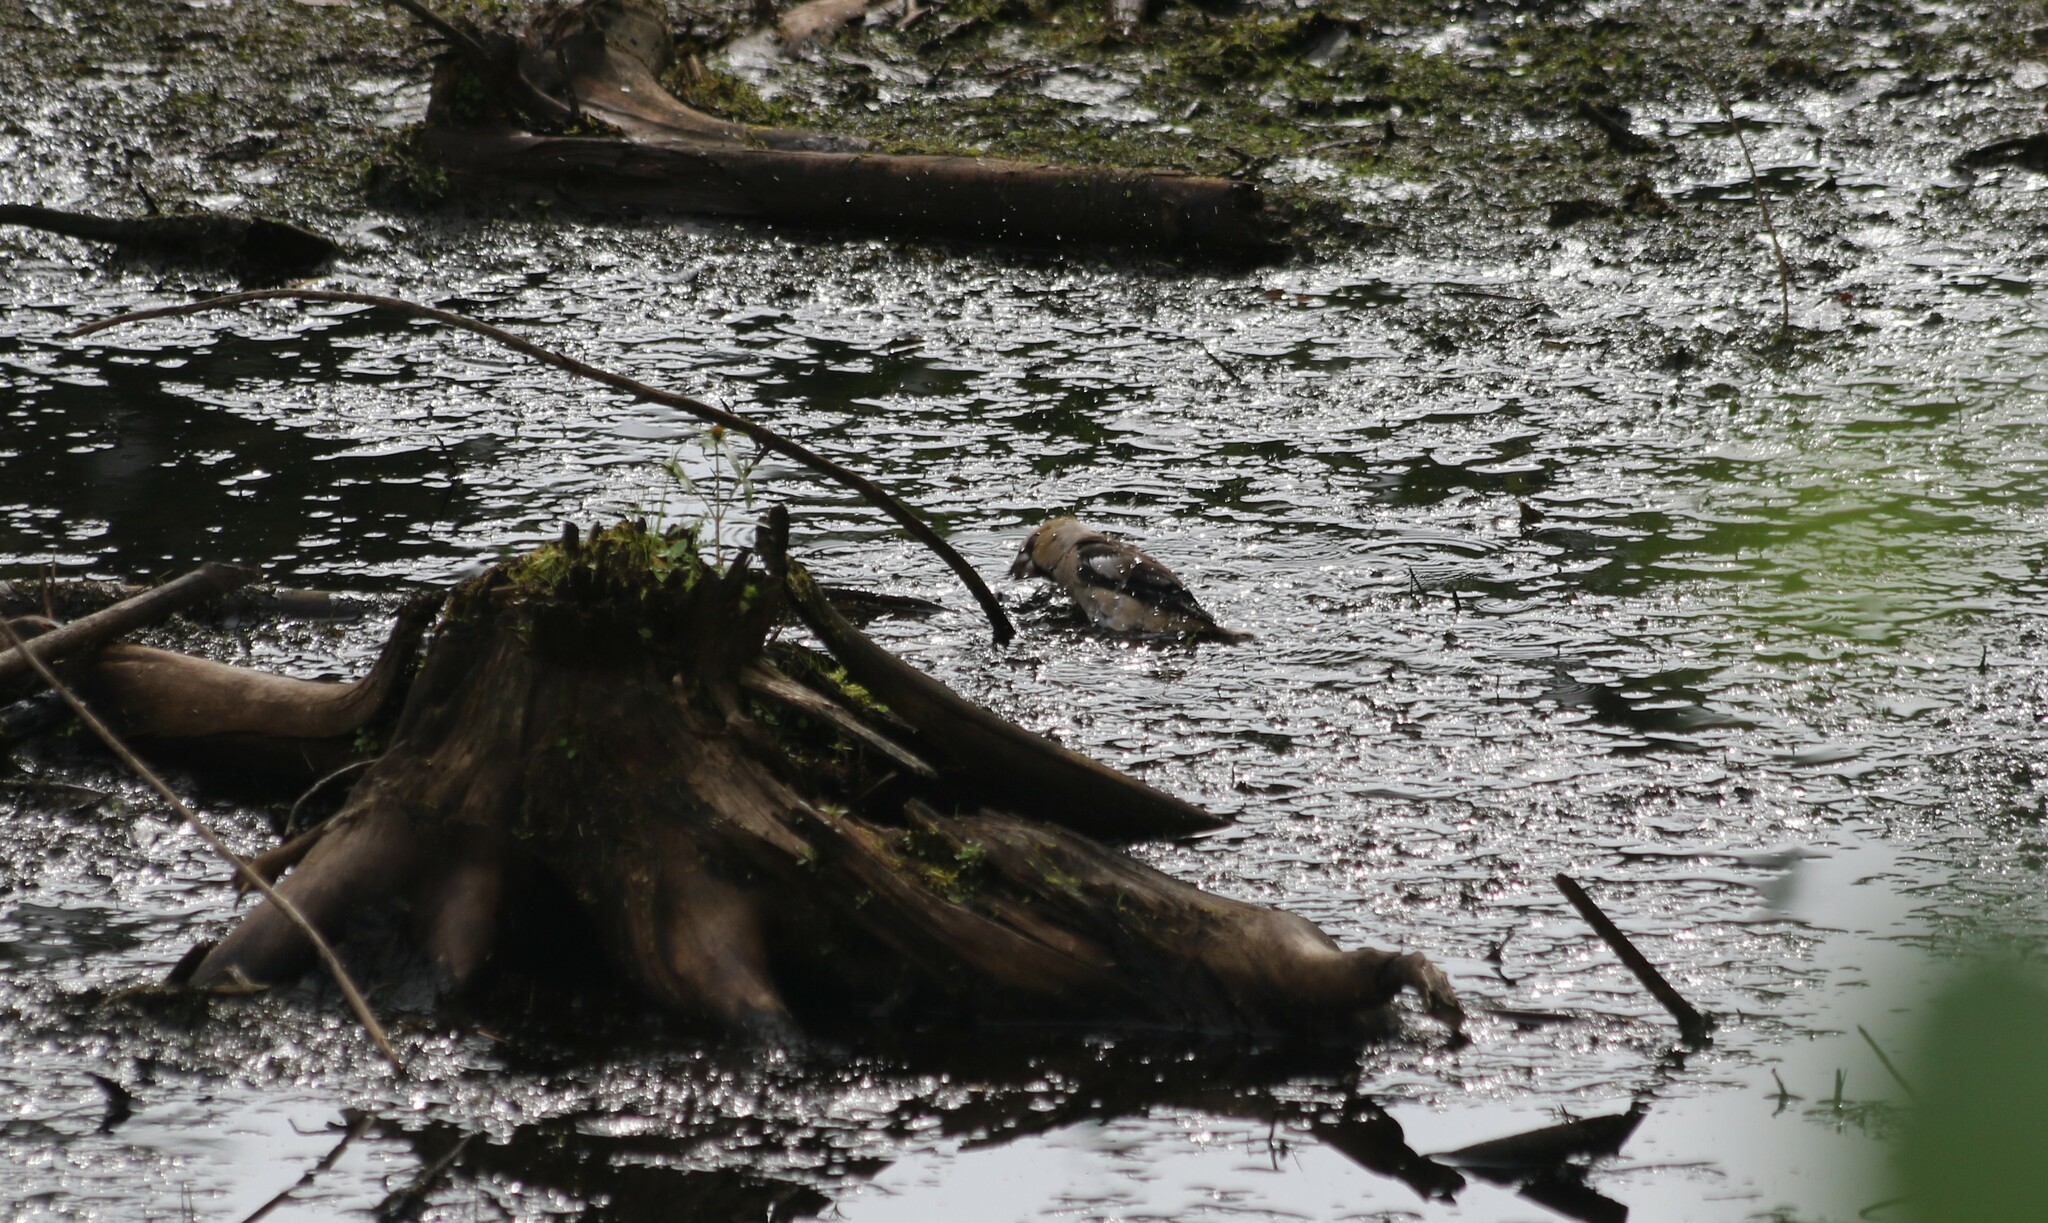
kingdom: Animalia
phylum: Chordata
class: Aves
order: Passeriformes
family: Fringillidae
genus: Coccothraustes
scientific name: Coccothraustes coccothraustes
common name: Hawfinch
